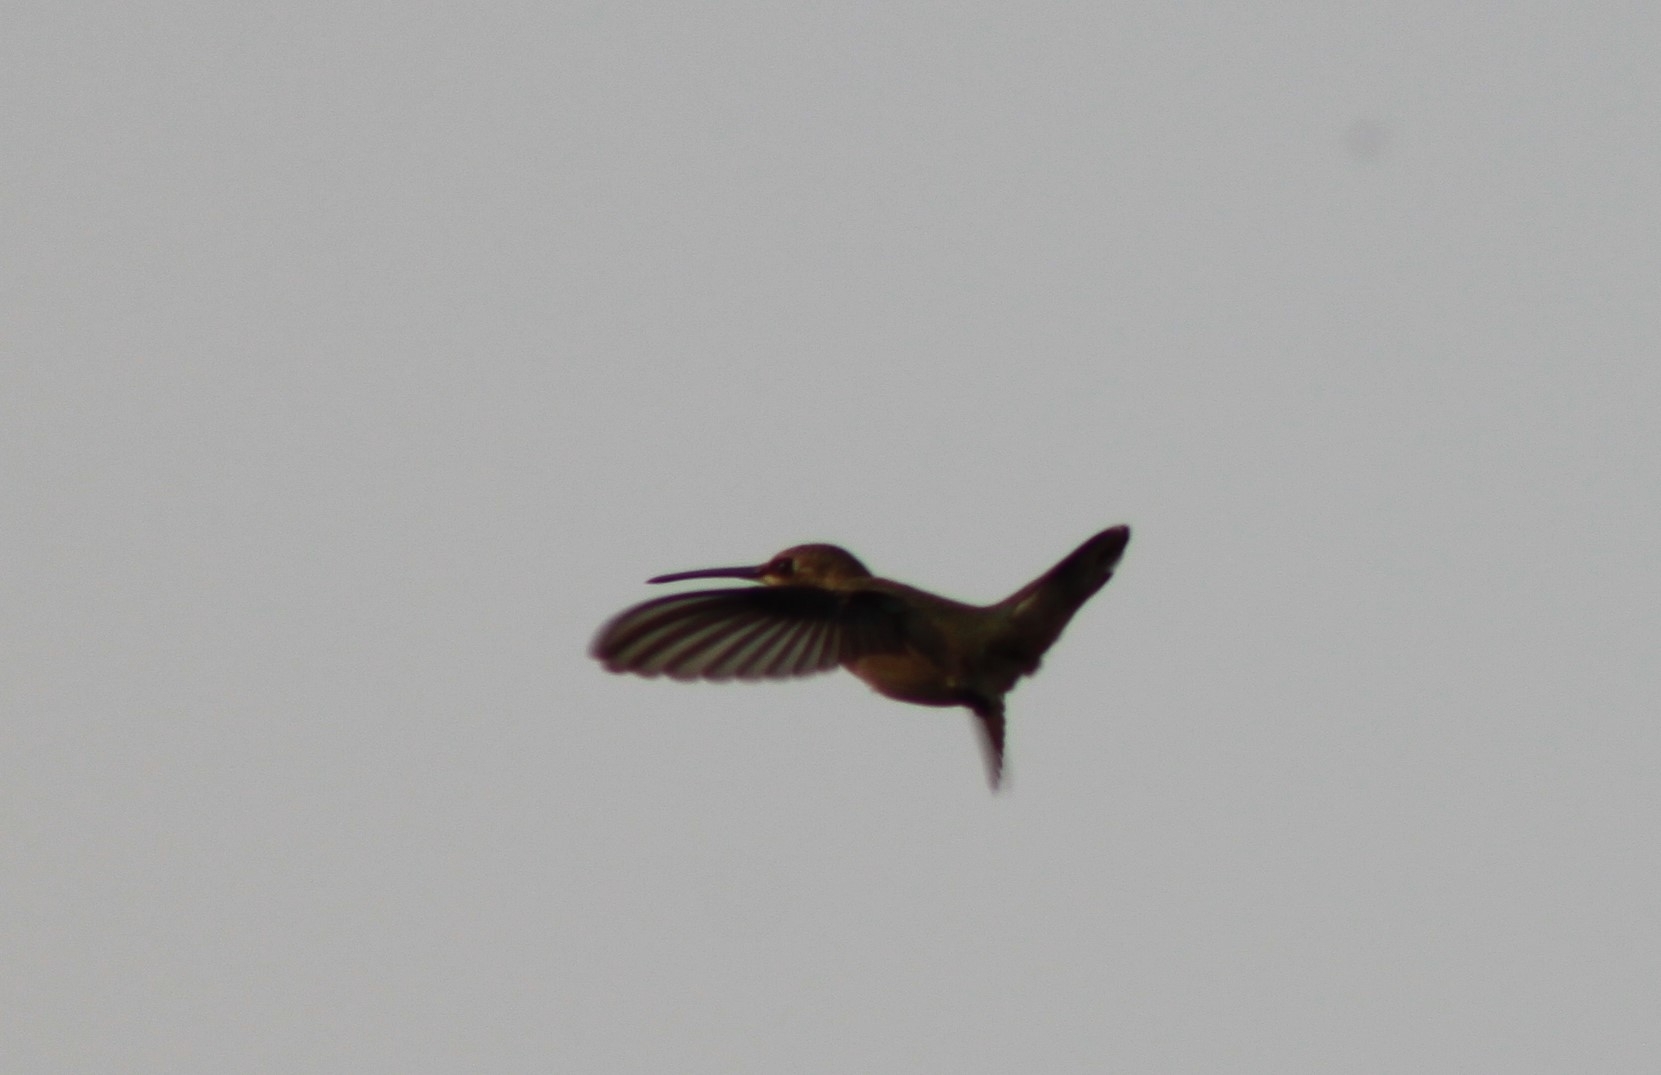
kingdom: Animalia
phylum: Chordata
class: Aves
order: Apodiformes
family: Trochilidae
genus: Selasphorus
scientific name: Selasphorus rufus
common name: Rufous hummingbird
